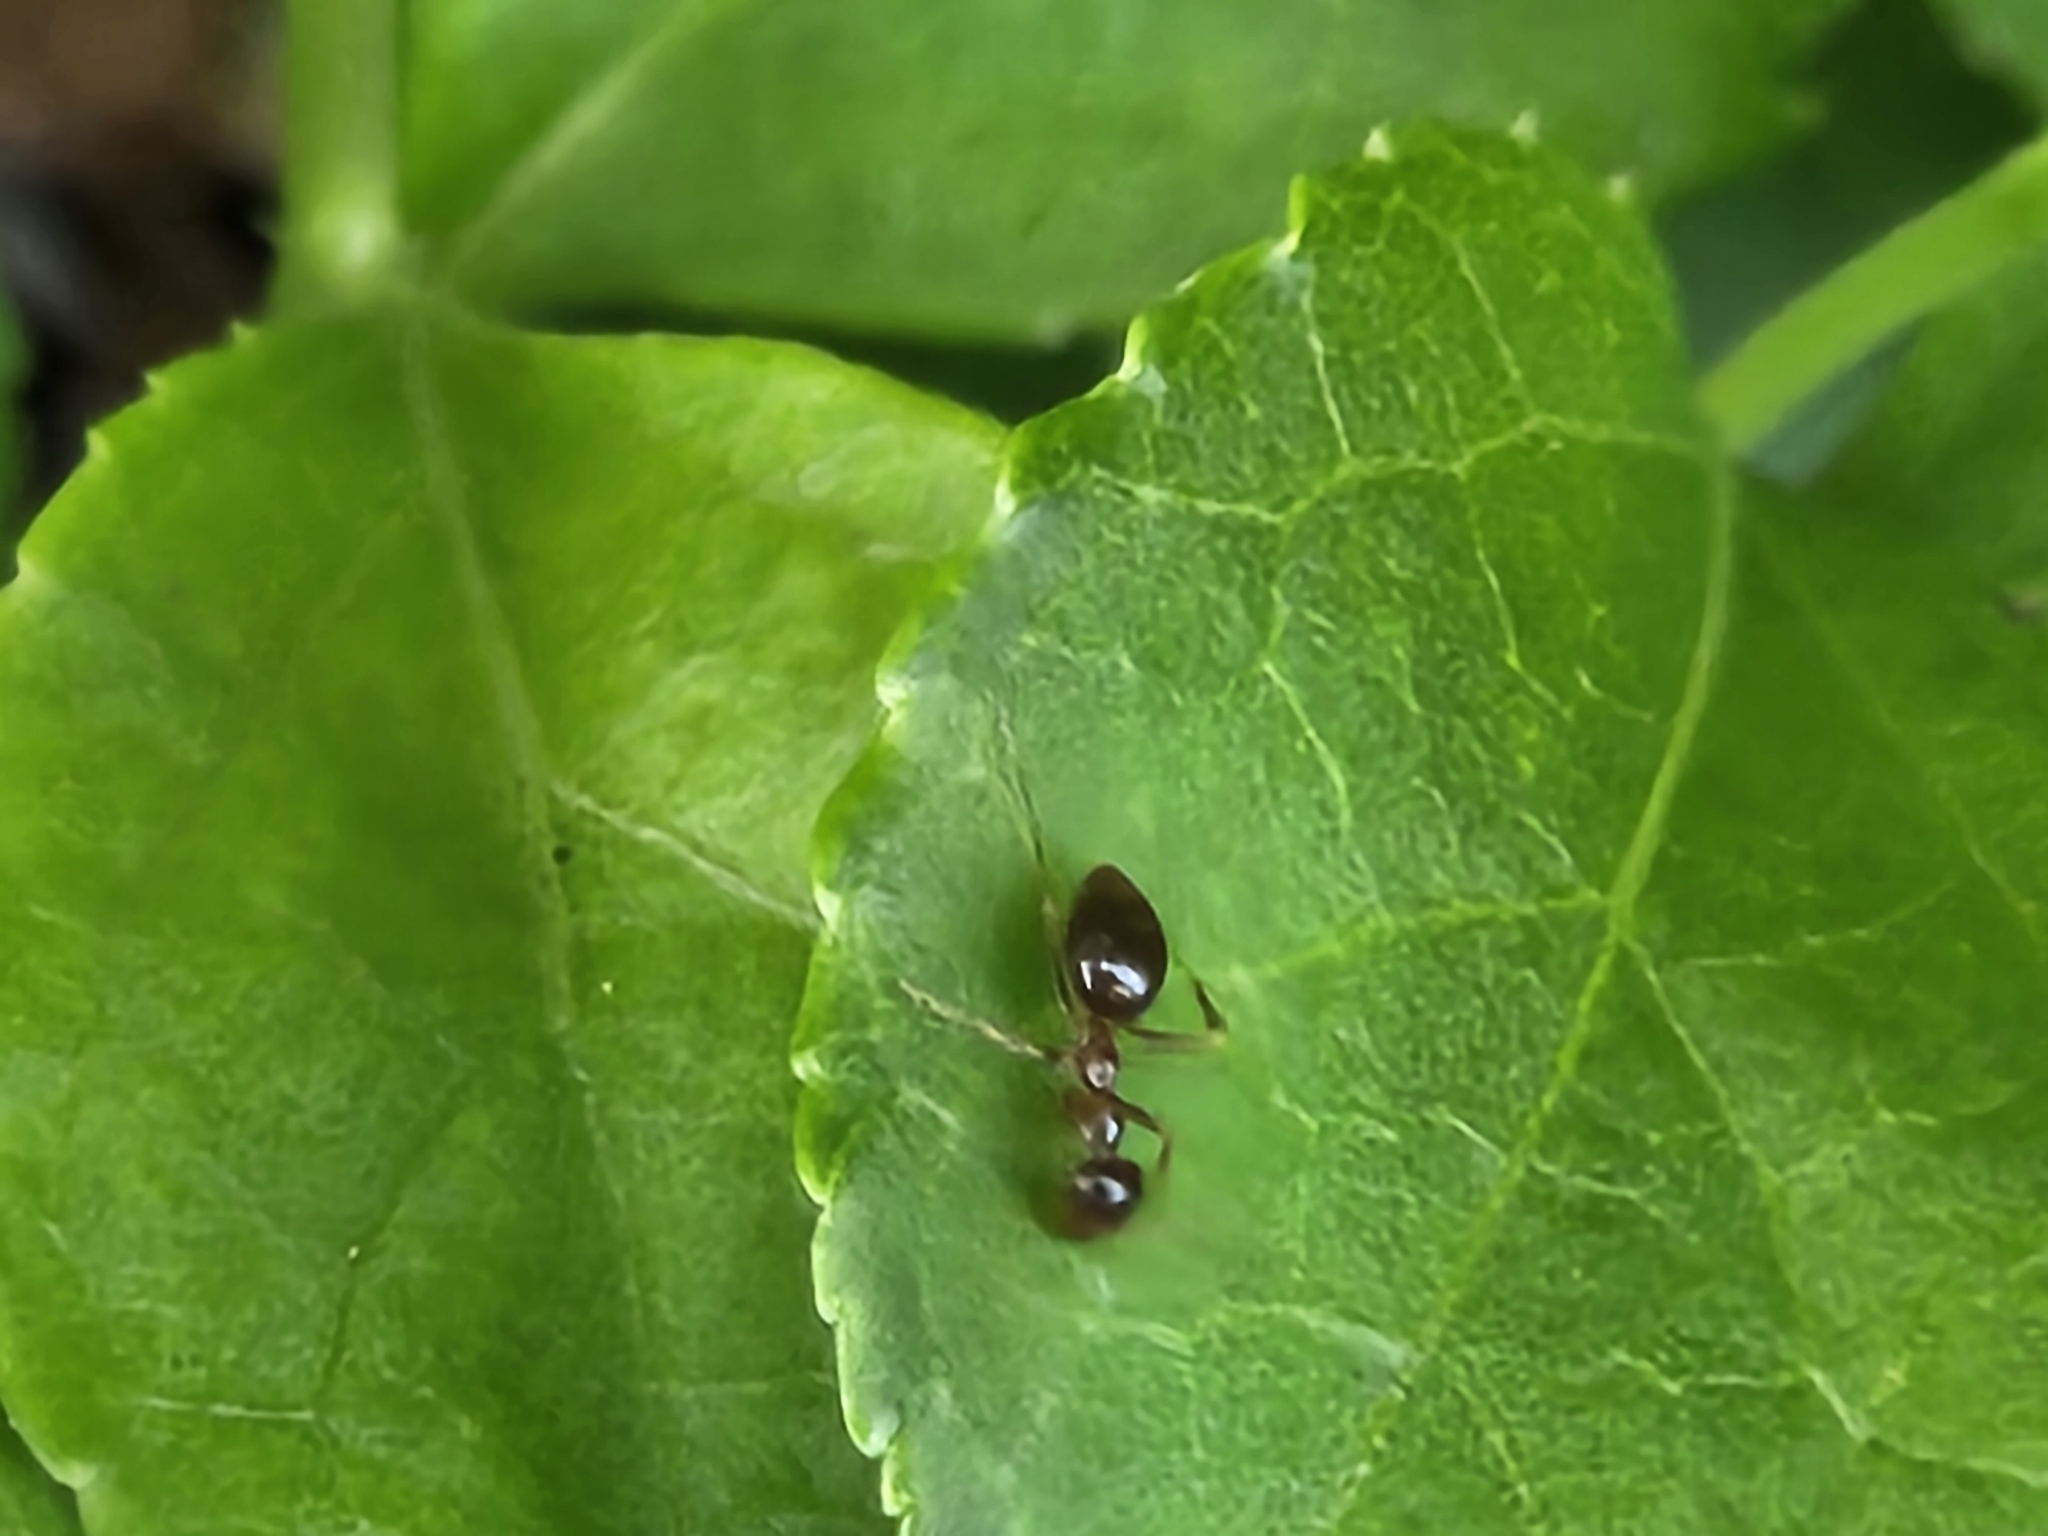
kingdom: Animalia
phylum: Arthropoda
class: Insecta
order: Hymenoptera
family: Formicidae
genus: Prenolepis
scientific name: Prenolepis imparis
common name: Small honey ant
